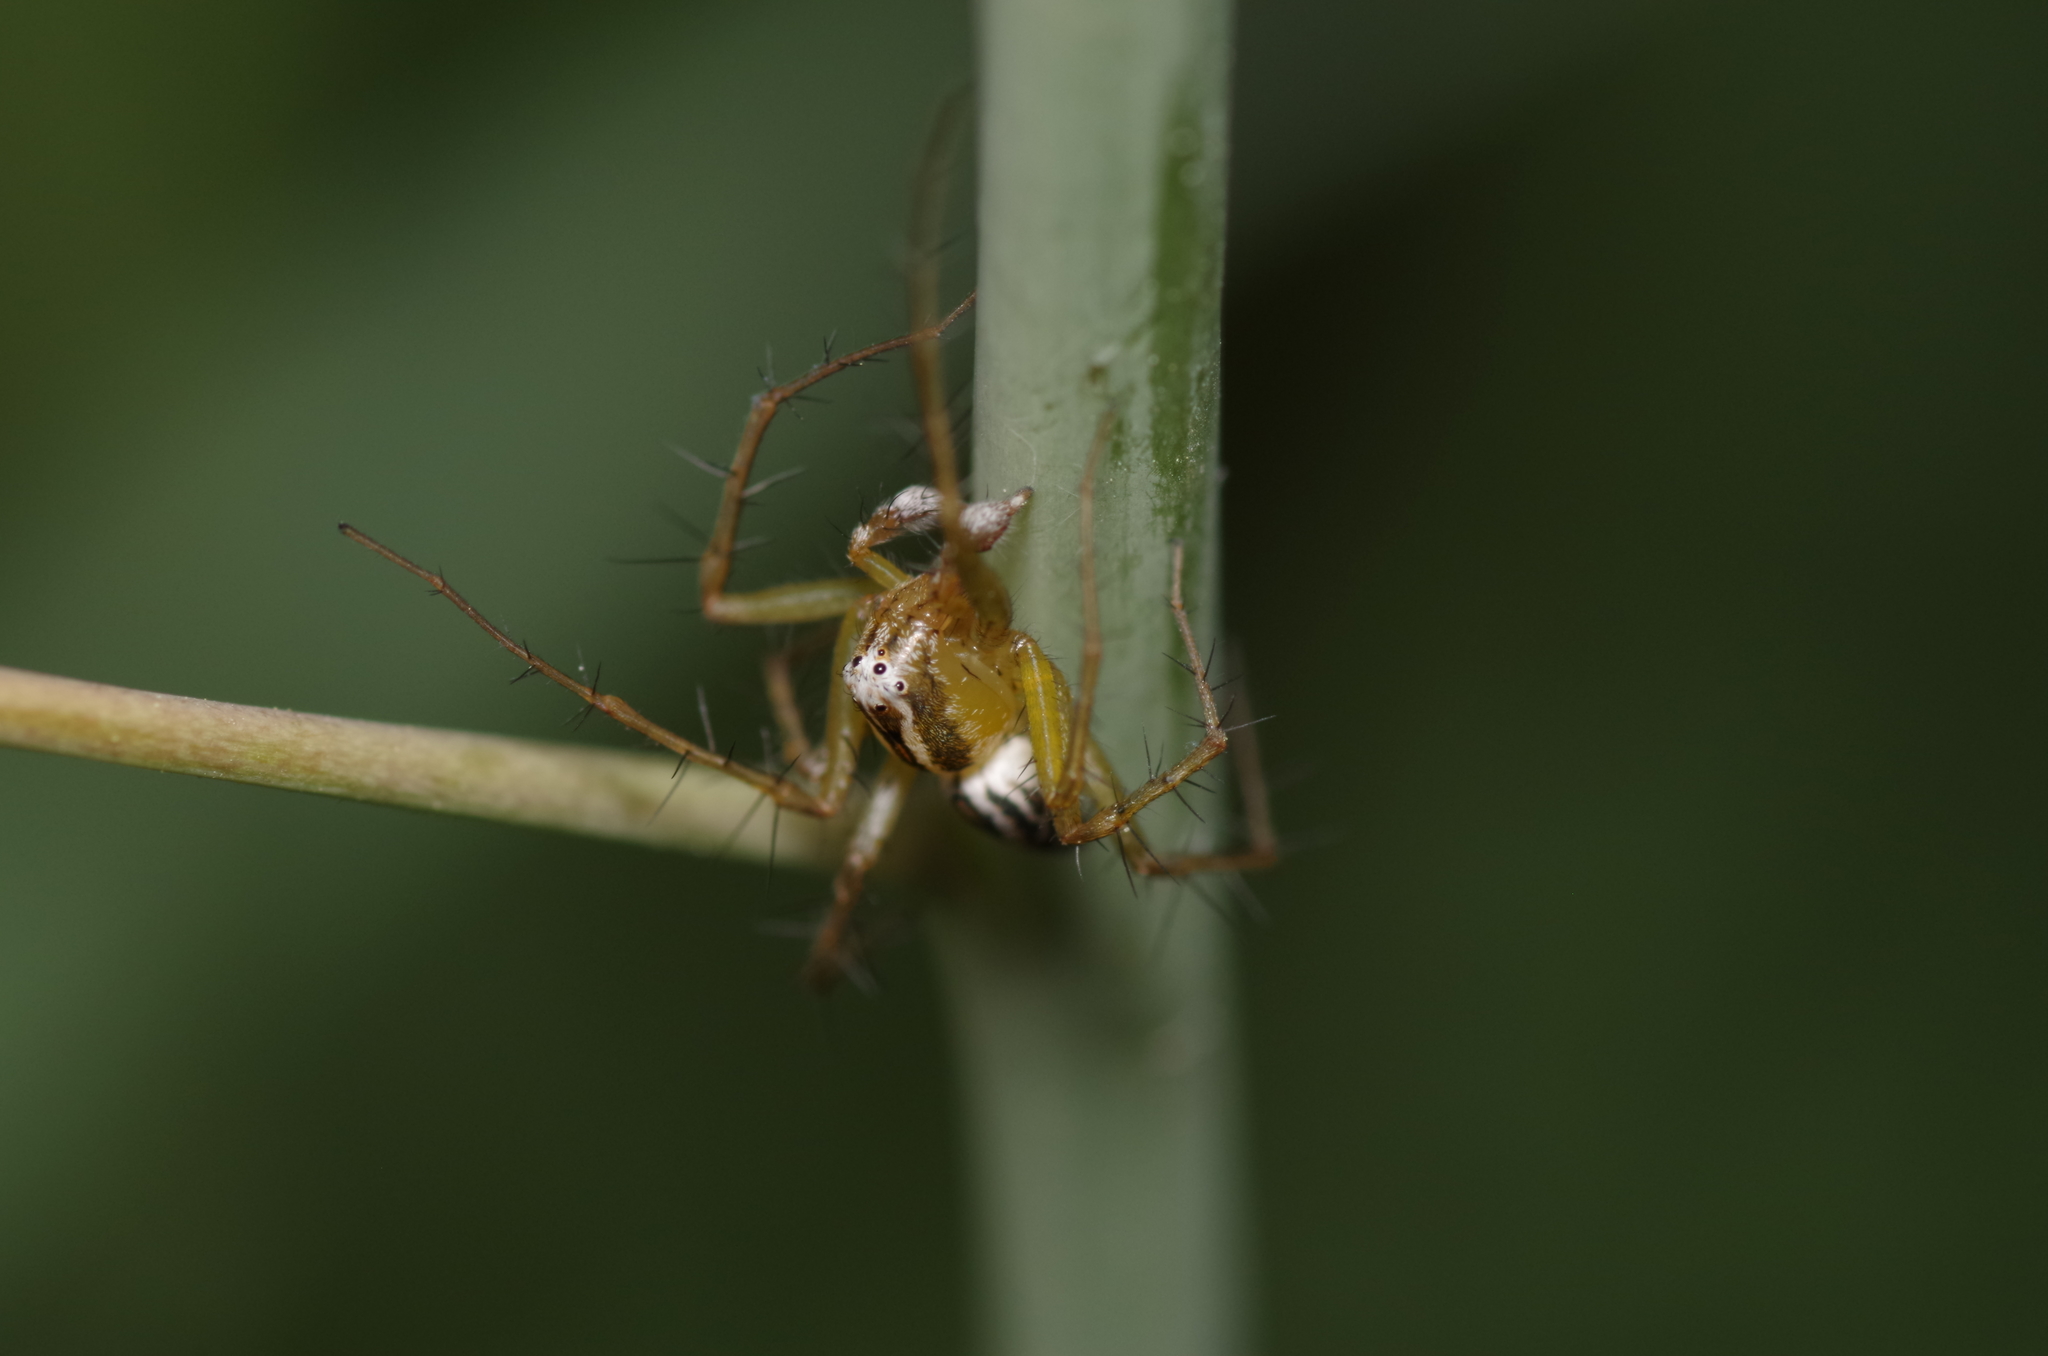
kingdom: Animalia
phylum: Arthropoda
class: Arachnida
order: Araneae
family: Oxyopidae
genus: Oxyopes
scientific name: Oxyopes lineatus
